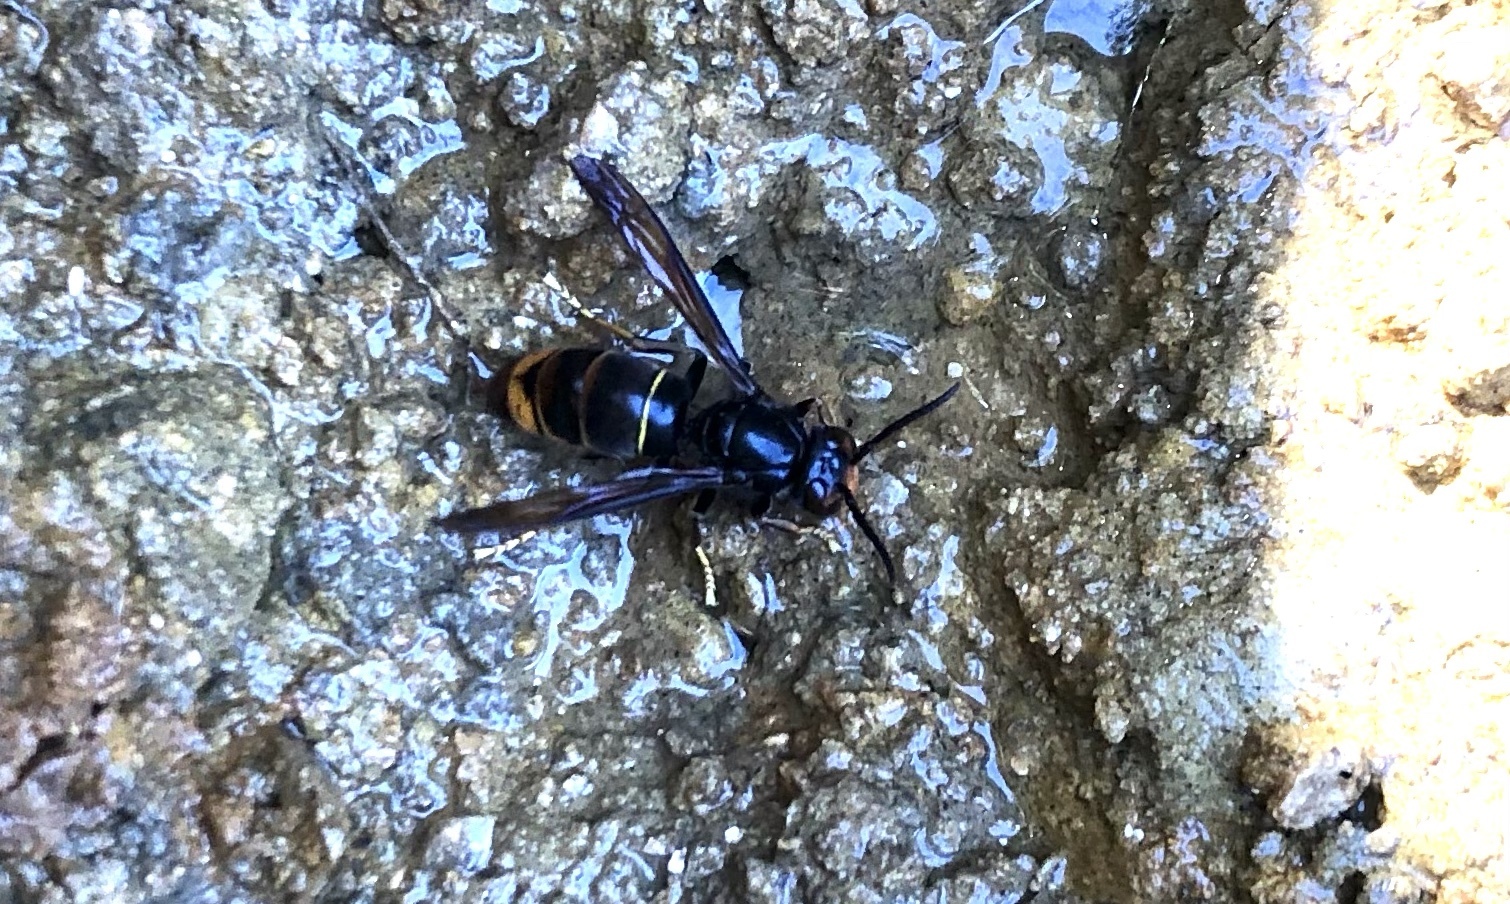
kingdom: Animalia
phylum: Arthropoda
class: Insecta
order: Hymenoptera
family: Vespidae
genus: Vespa
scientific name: Vespa velutina
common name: Asian hornet
